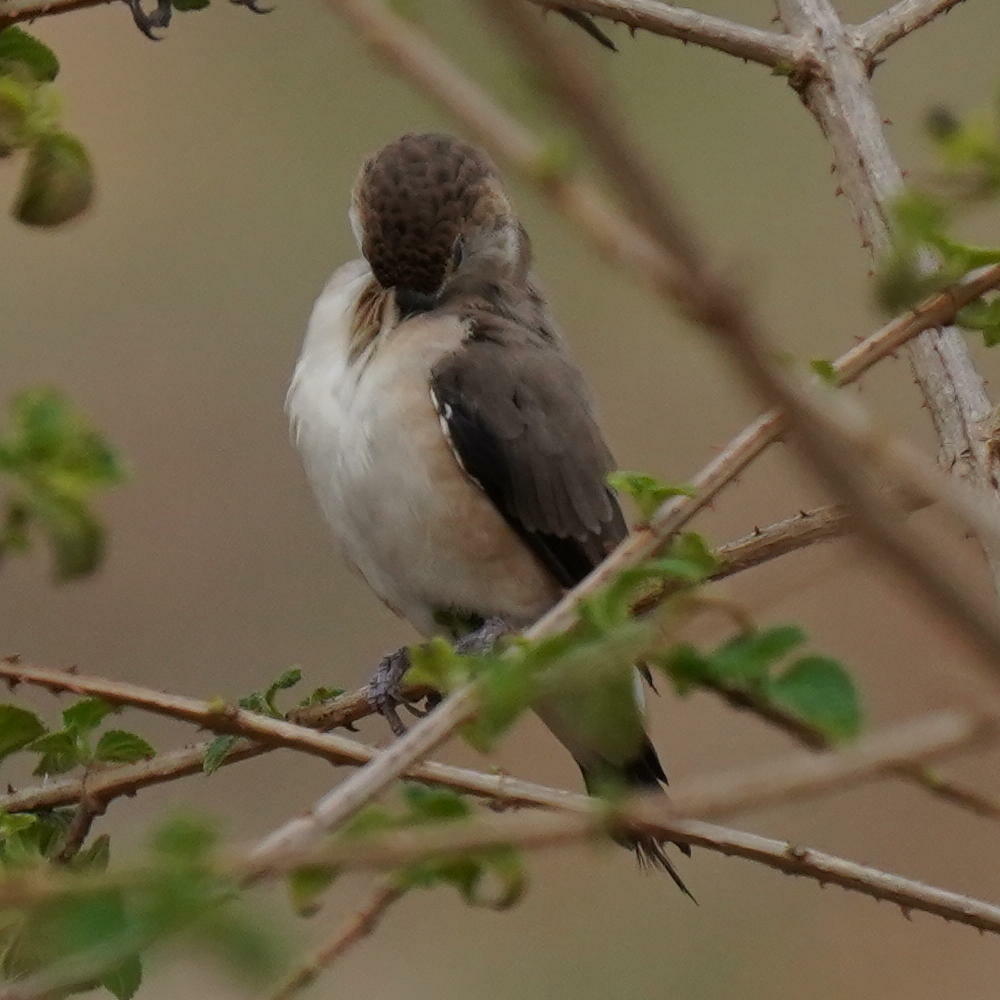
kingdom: Animalia
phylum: Chordata
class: Aves
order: Passeriformes
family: Estrildidae
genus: Euodice
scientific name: Euodice malabarica
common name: Indian silverbill
